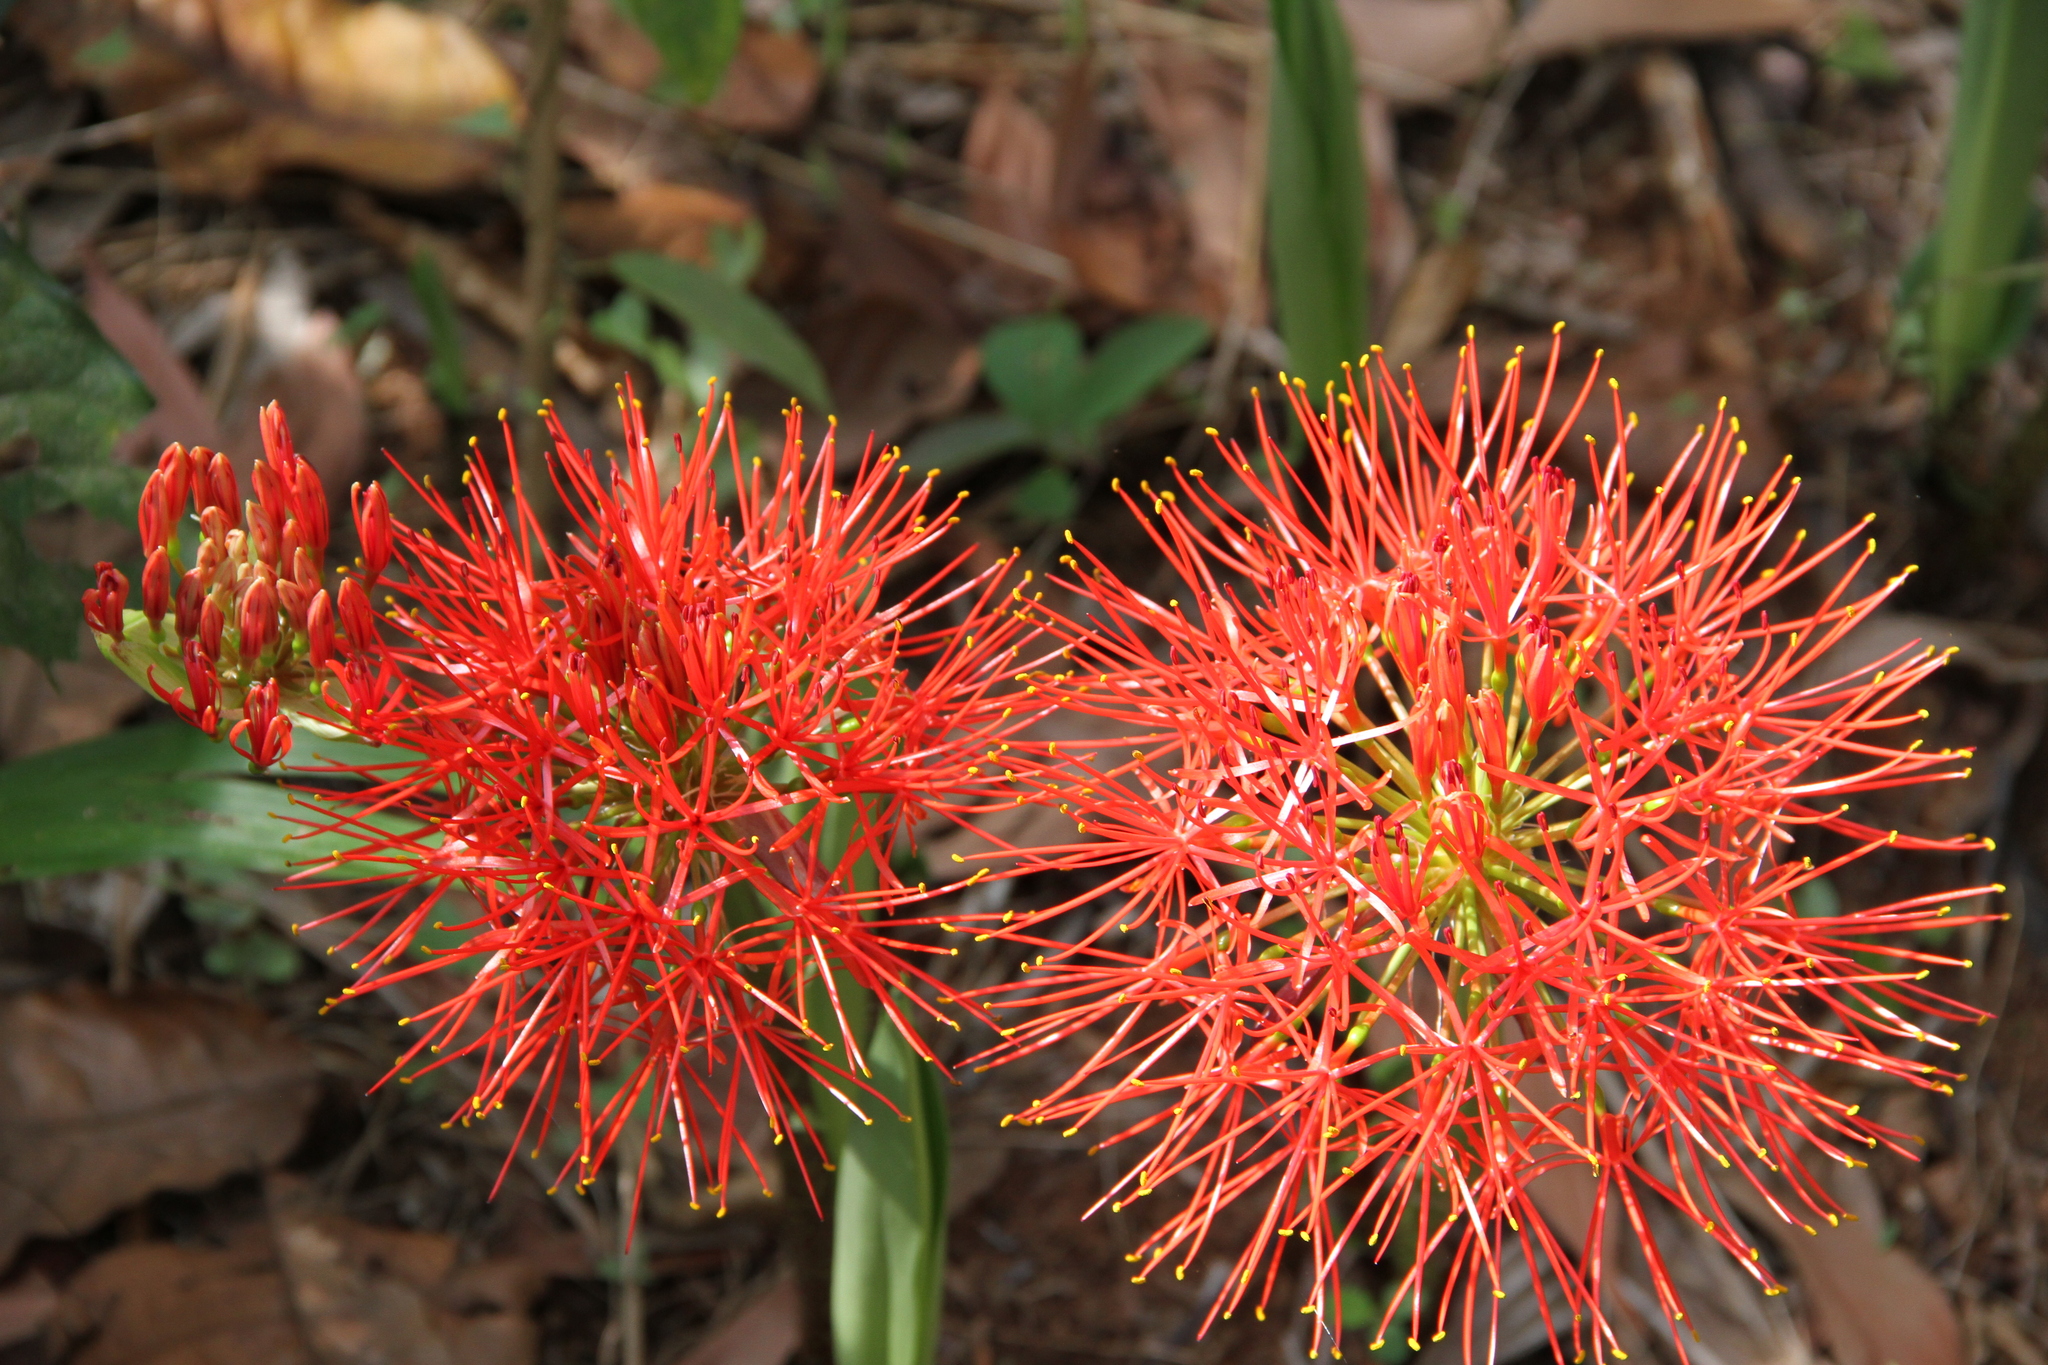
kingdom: Plantae
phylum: Tracheophyta
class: Liliopsida
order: Asparagales
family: Amaryllidaceae
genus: Scadoxus
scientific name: Scadoxus multiflorus
